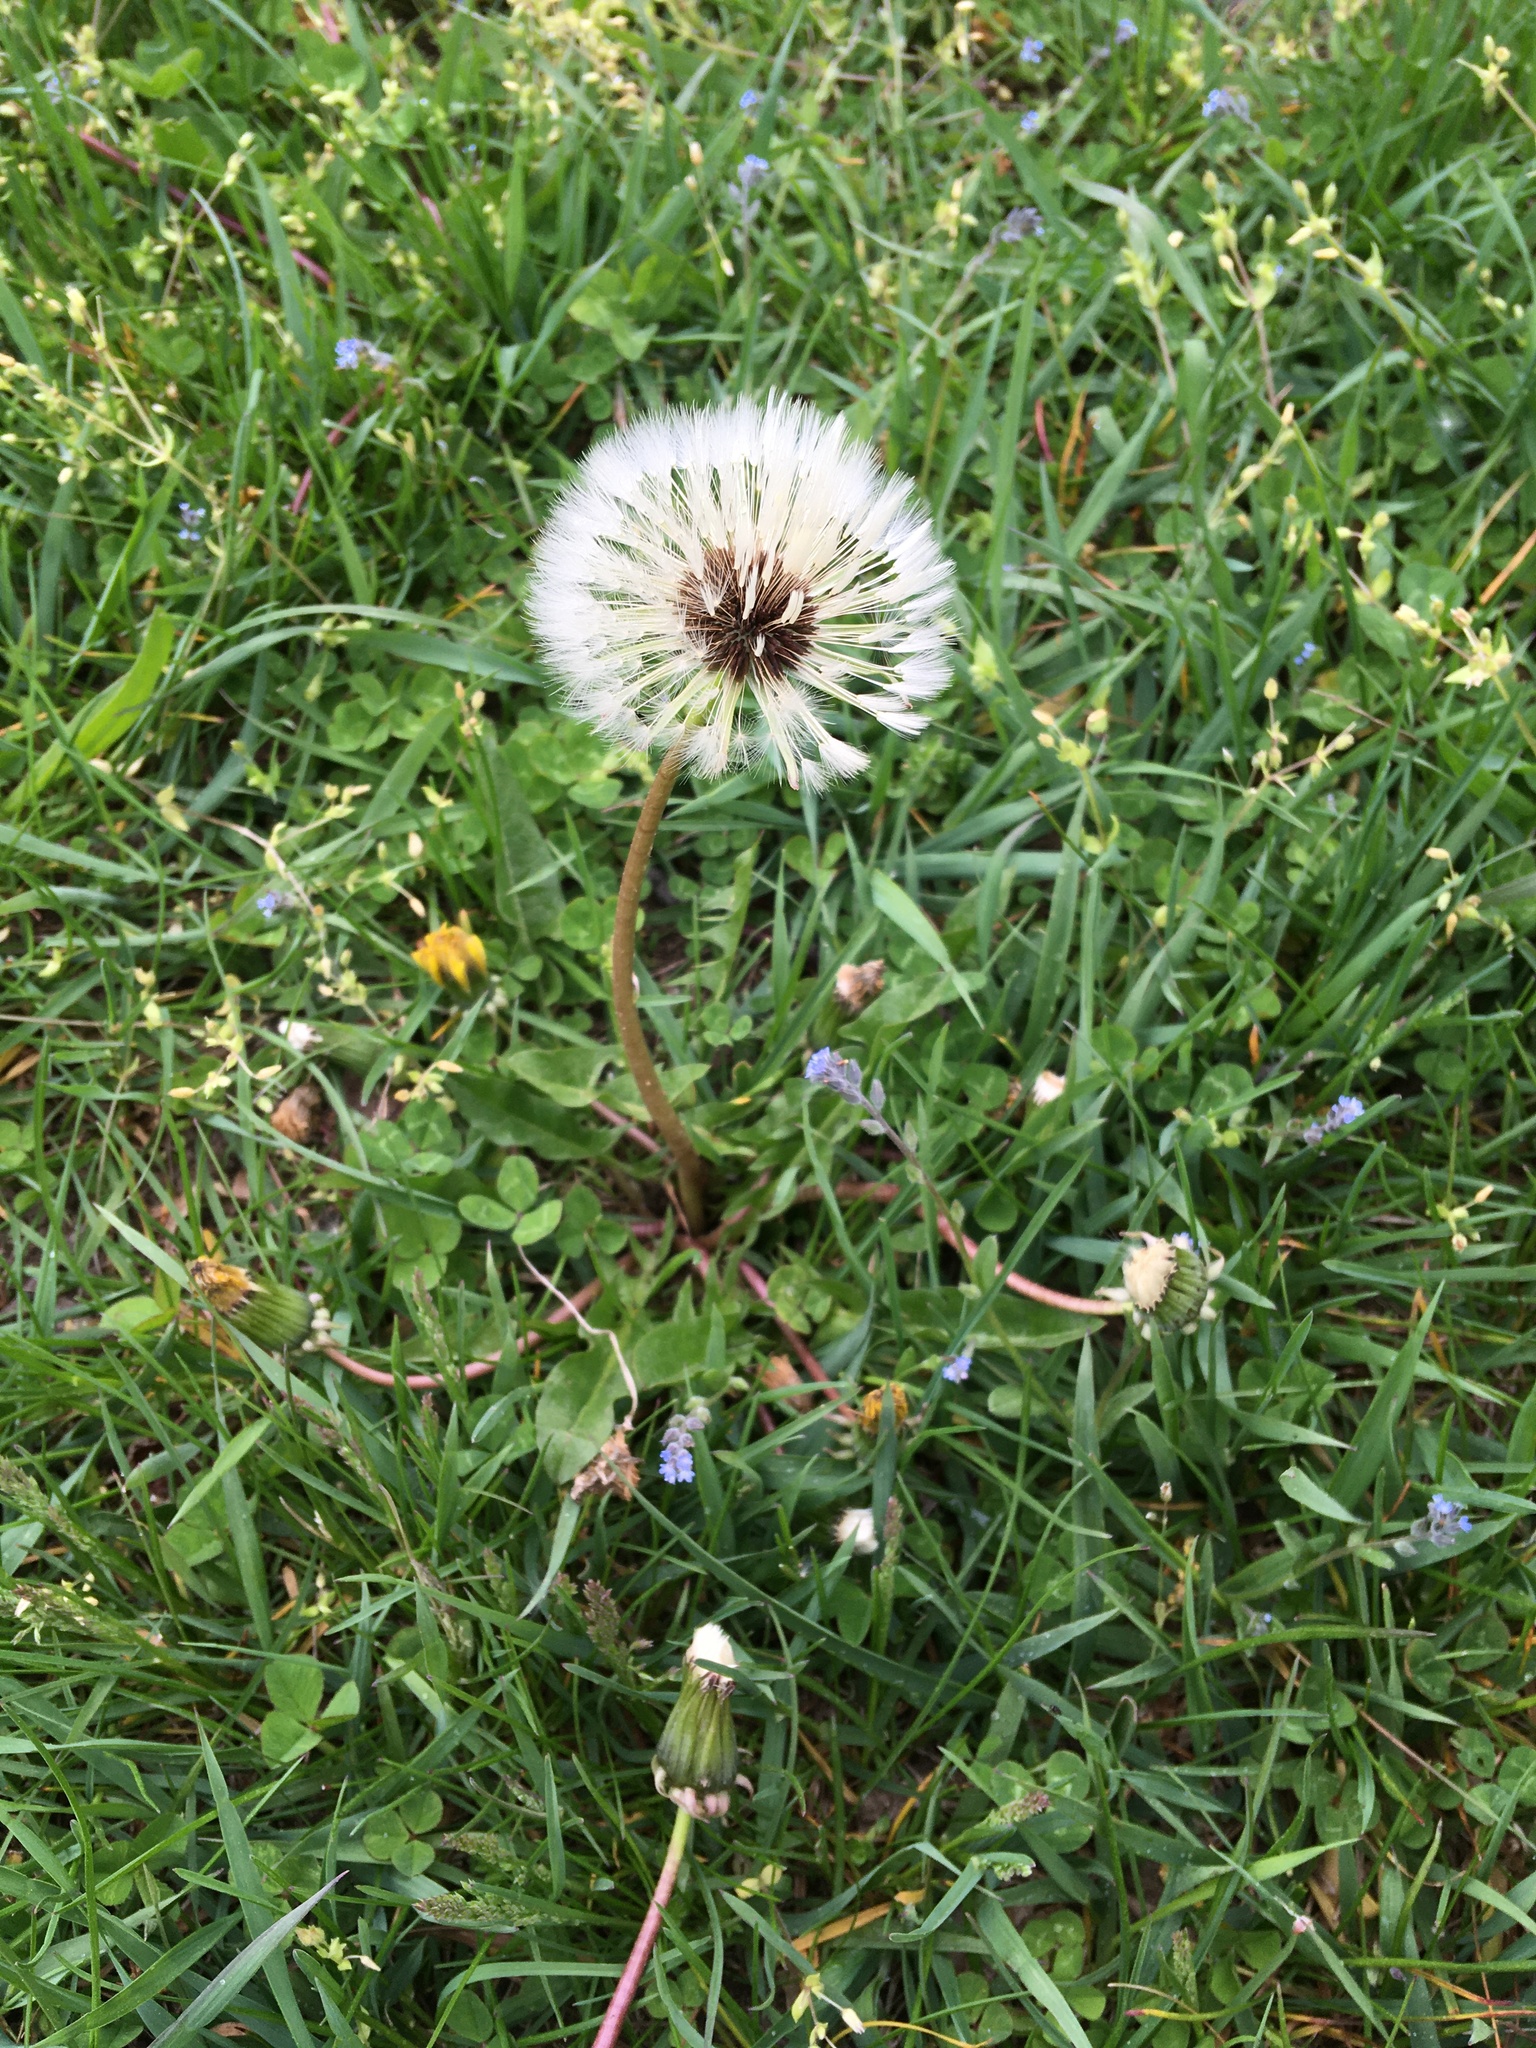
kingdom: Plantae
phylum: Tracheophyta
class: Magnoliopsida
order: Asterales
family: Asteraceae
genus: Taraxacum
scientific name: Taraxacum officinale
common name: Common dandelion
